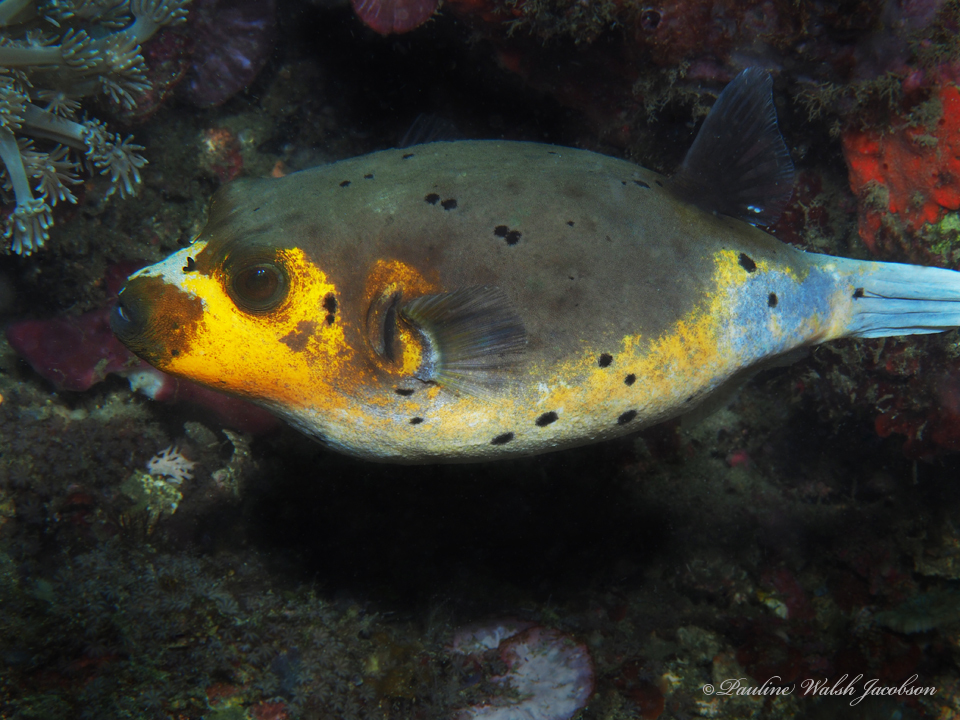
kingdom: Animalia
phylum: Chordata
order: Tetraodontiformes
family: Tetraodontidae
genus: Arothron
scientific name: Arothron nigropunctatus
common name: Black spotted blow fish
